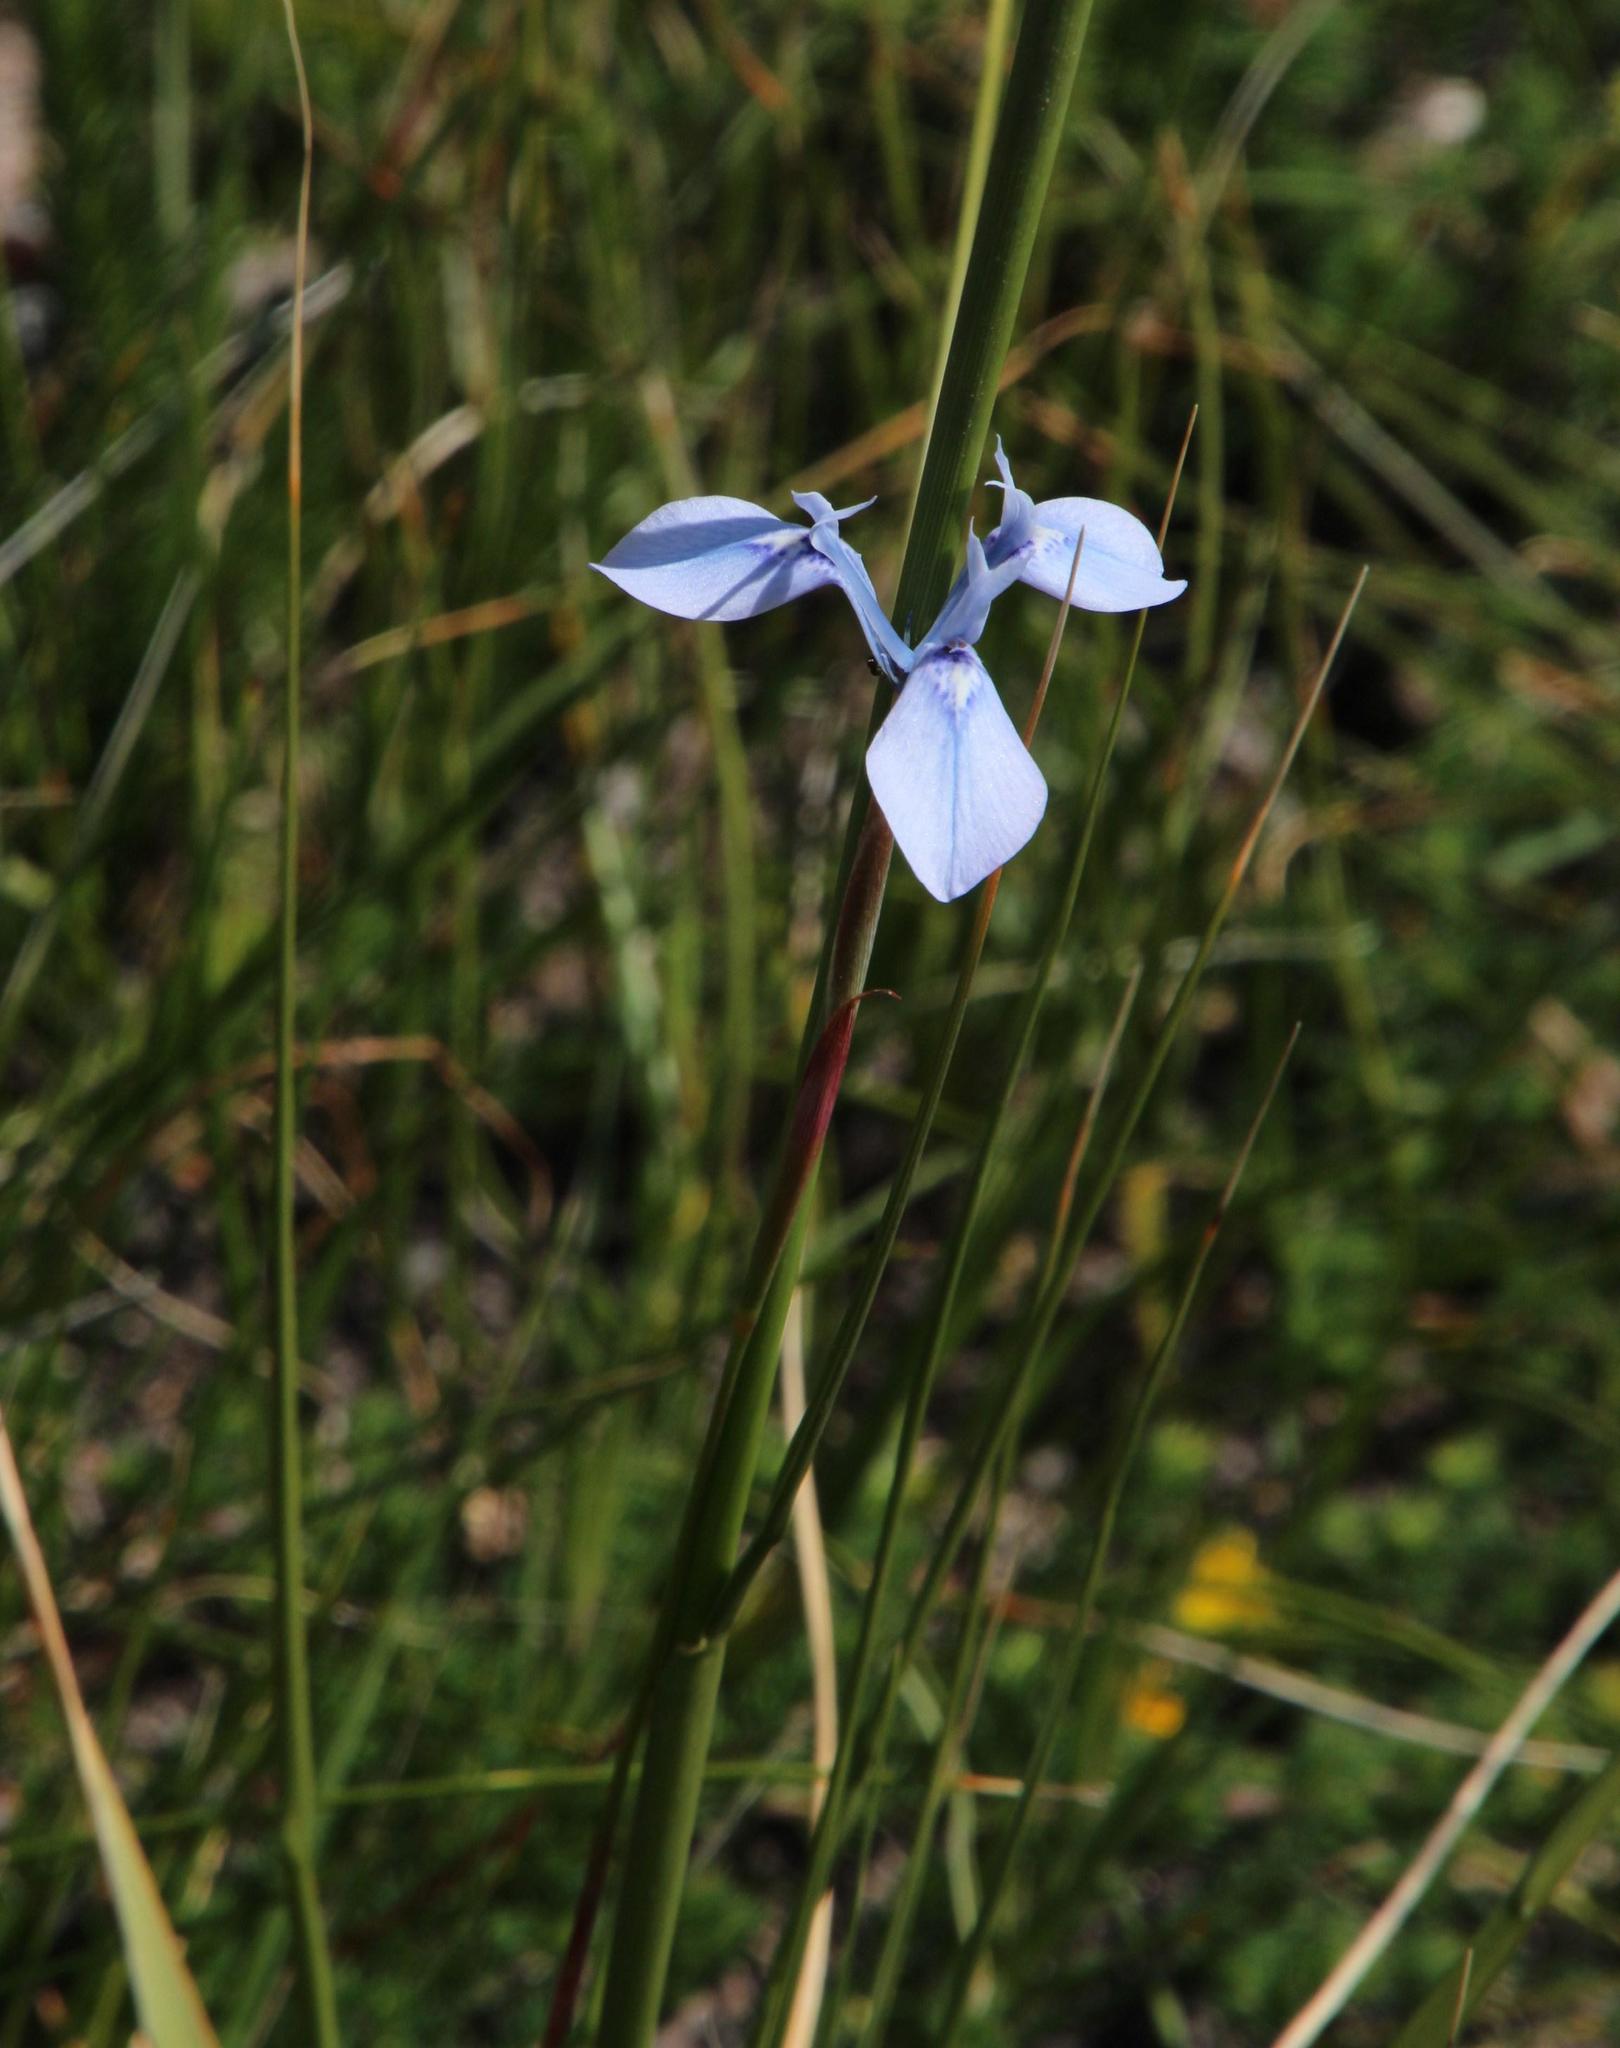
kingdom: Plantae
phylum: Tracheophyta
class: Liliopsida
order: Asparagales
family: Iridaceae
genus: Moraea
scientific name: Moraea tripetala
